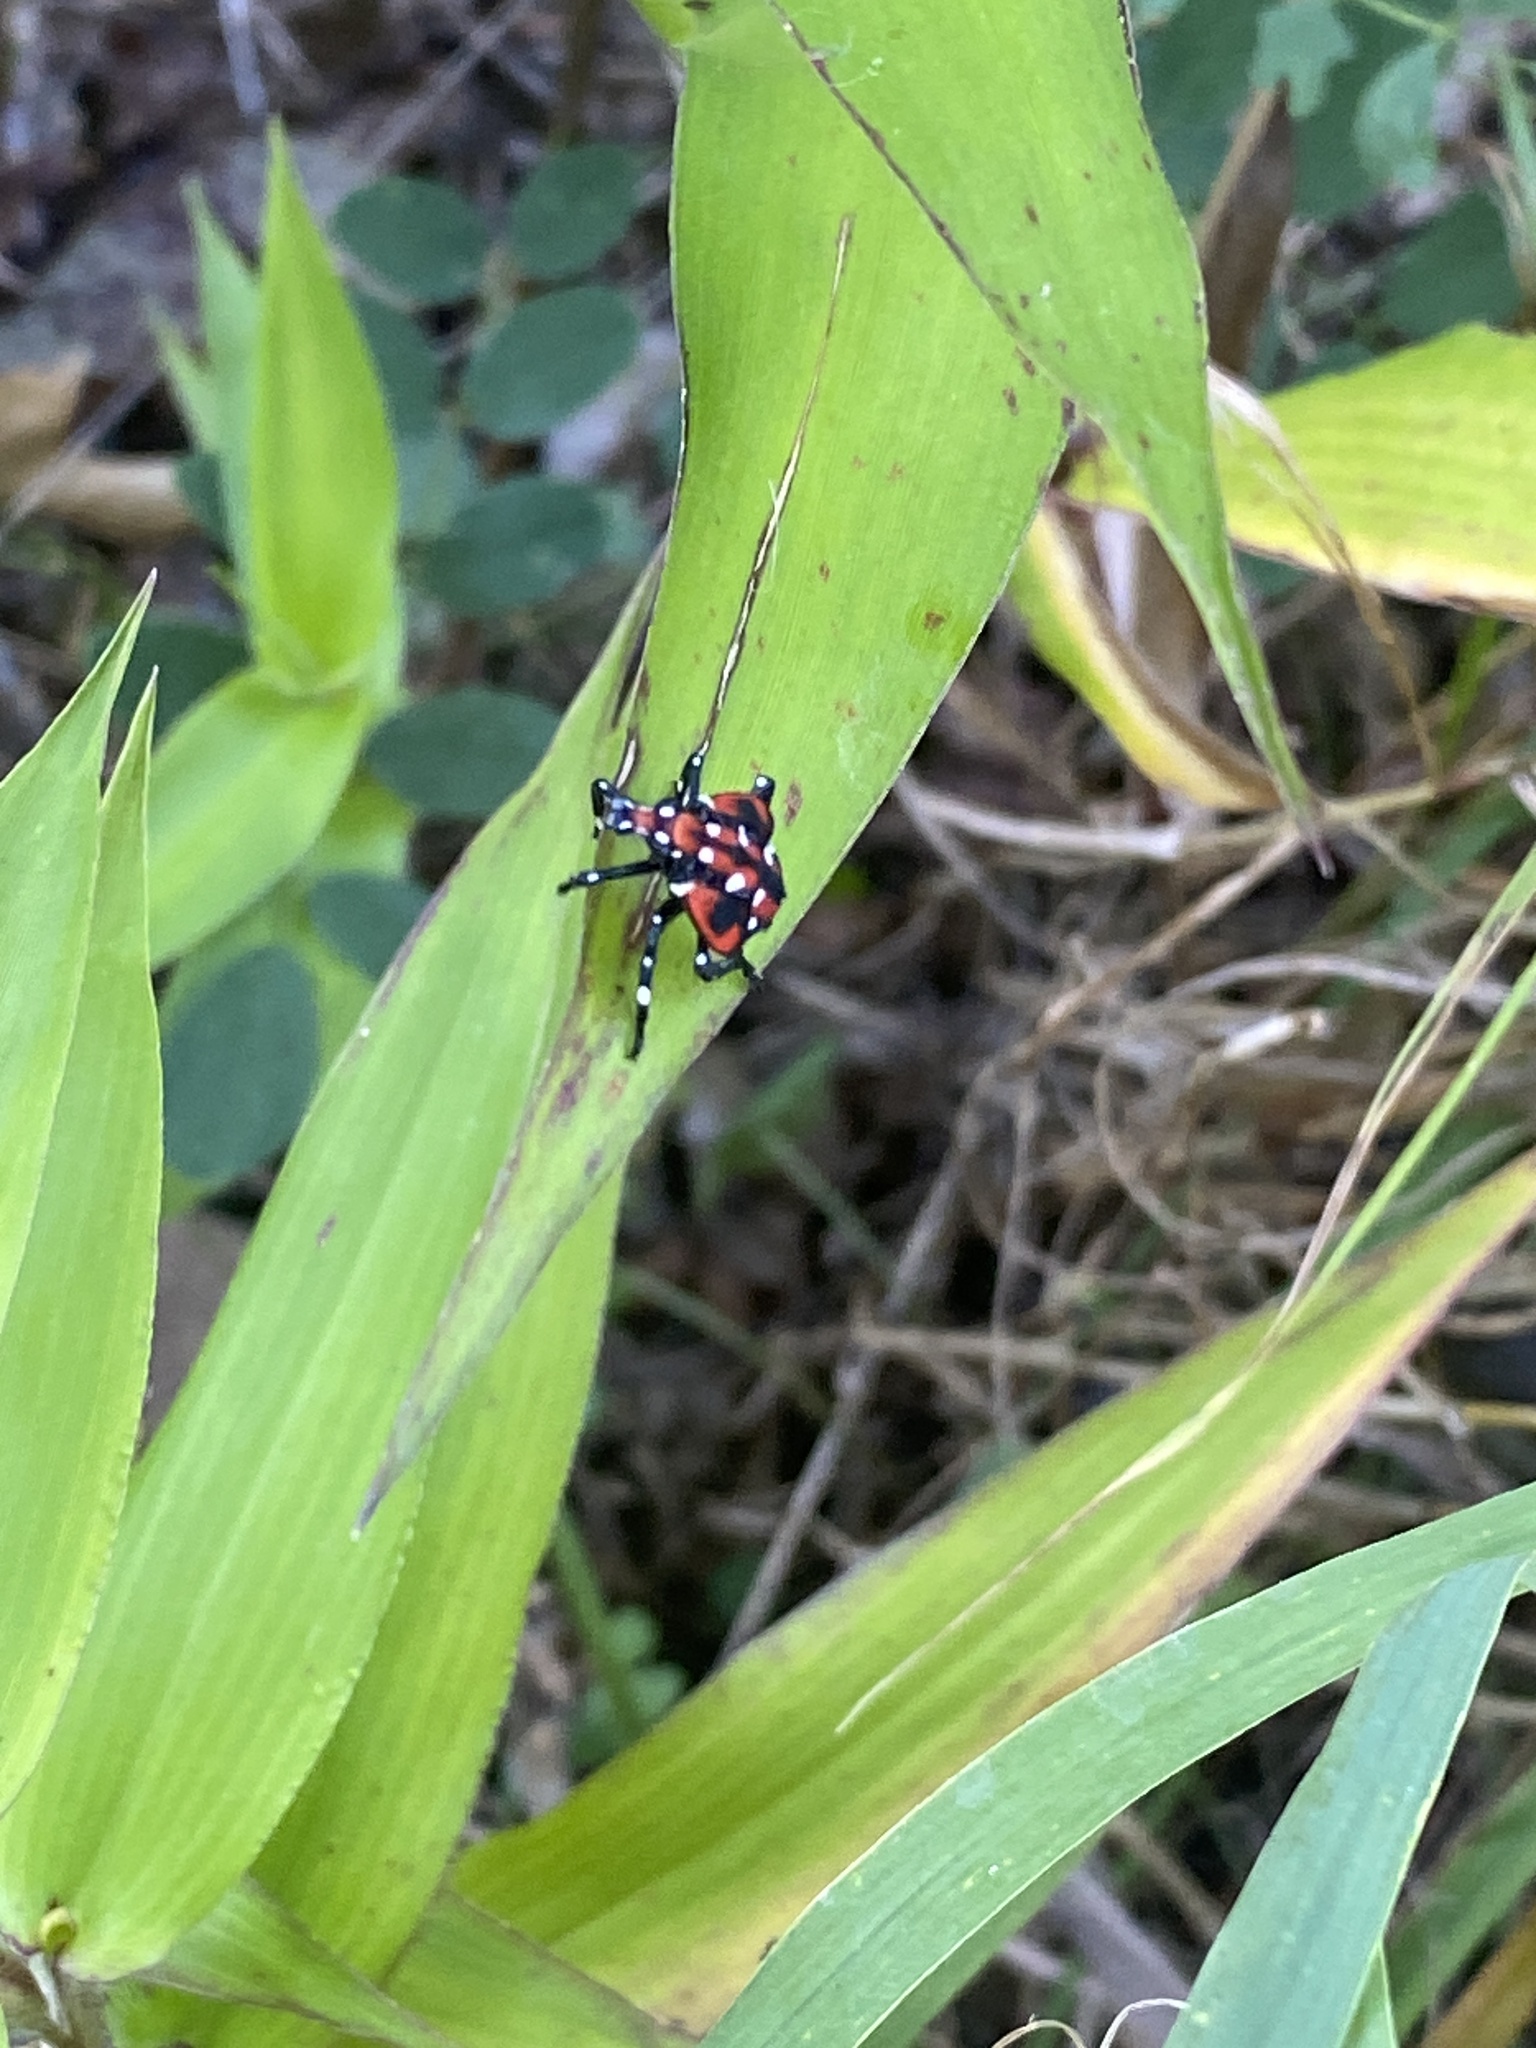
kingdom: Animalia
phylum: Arthropoda
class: Insecta
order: Hemiptera
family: Fulgoridae
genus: Lycorma
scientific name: Lycorma delicatula
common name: Spotted lanternfly
